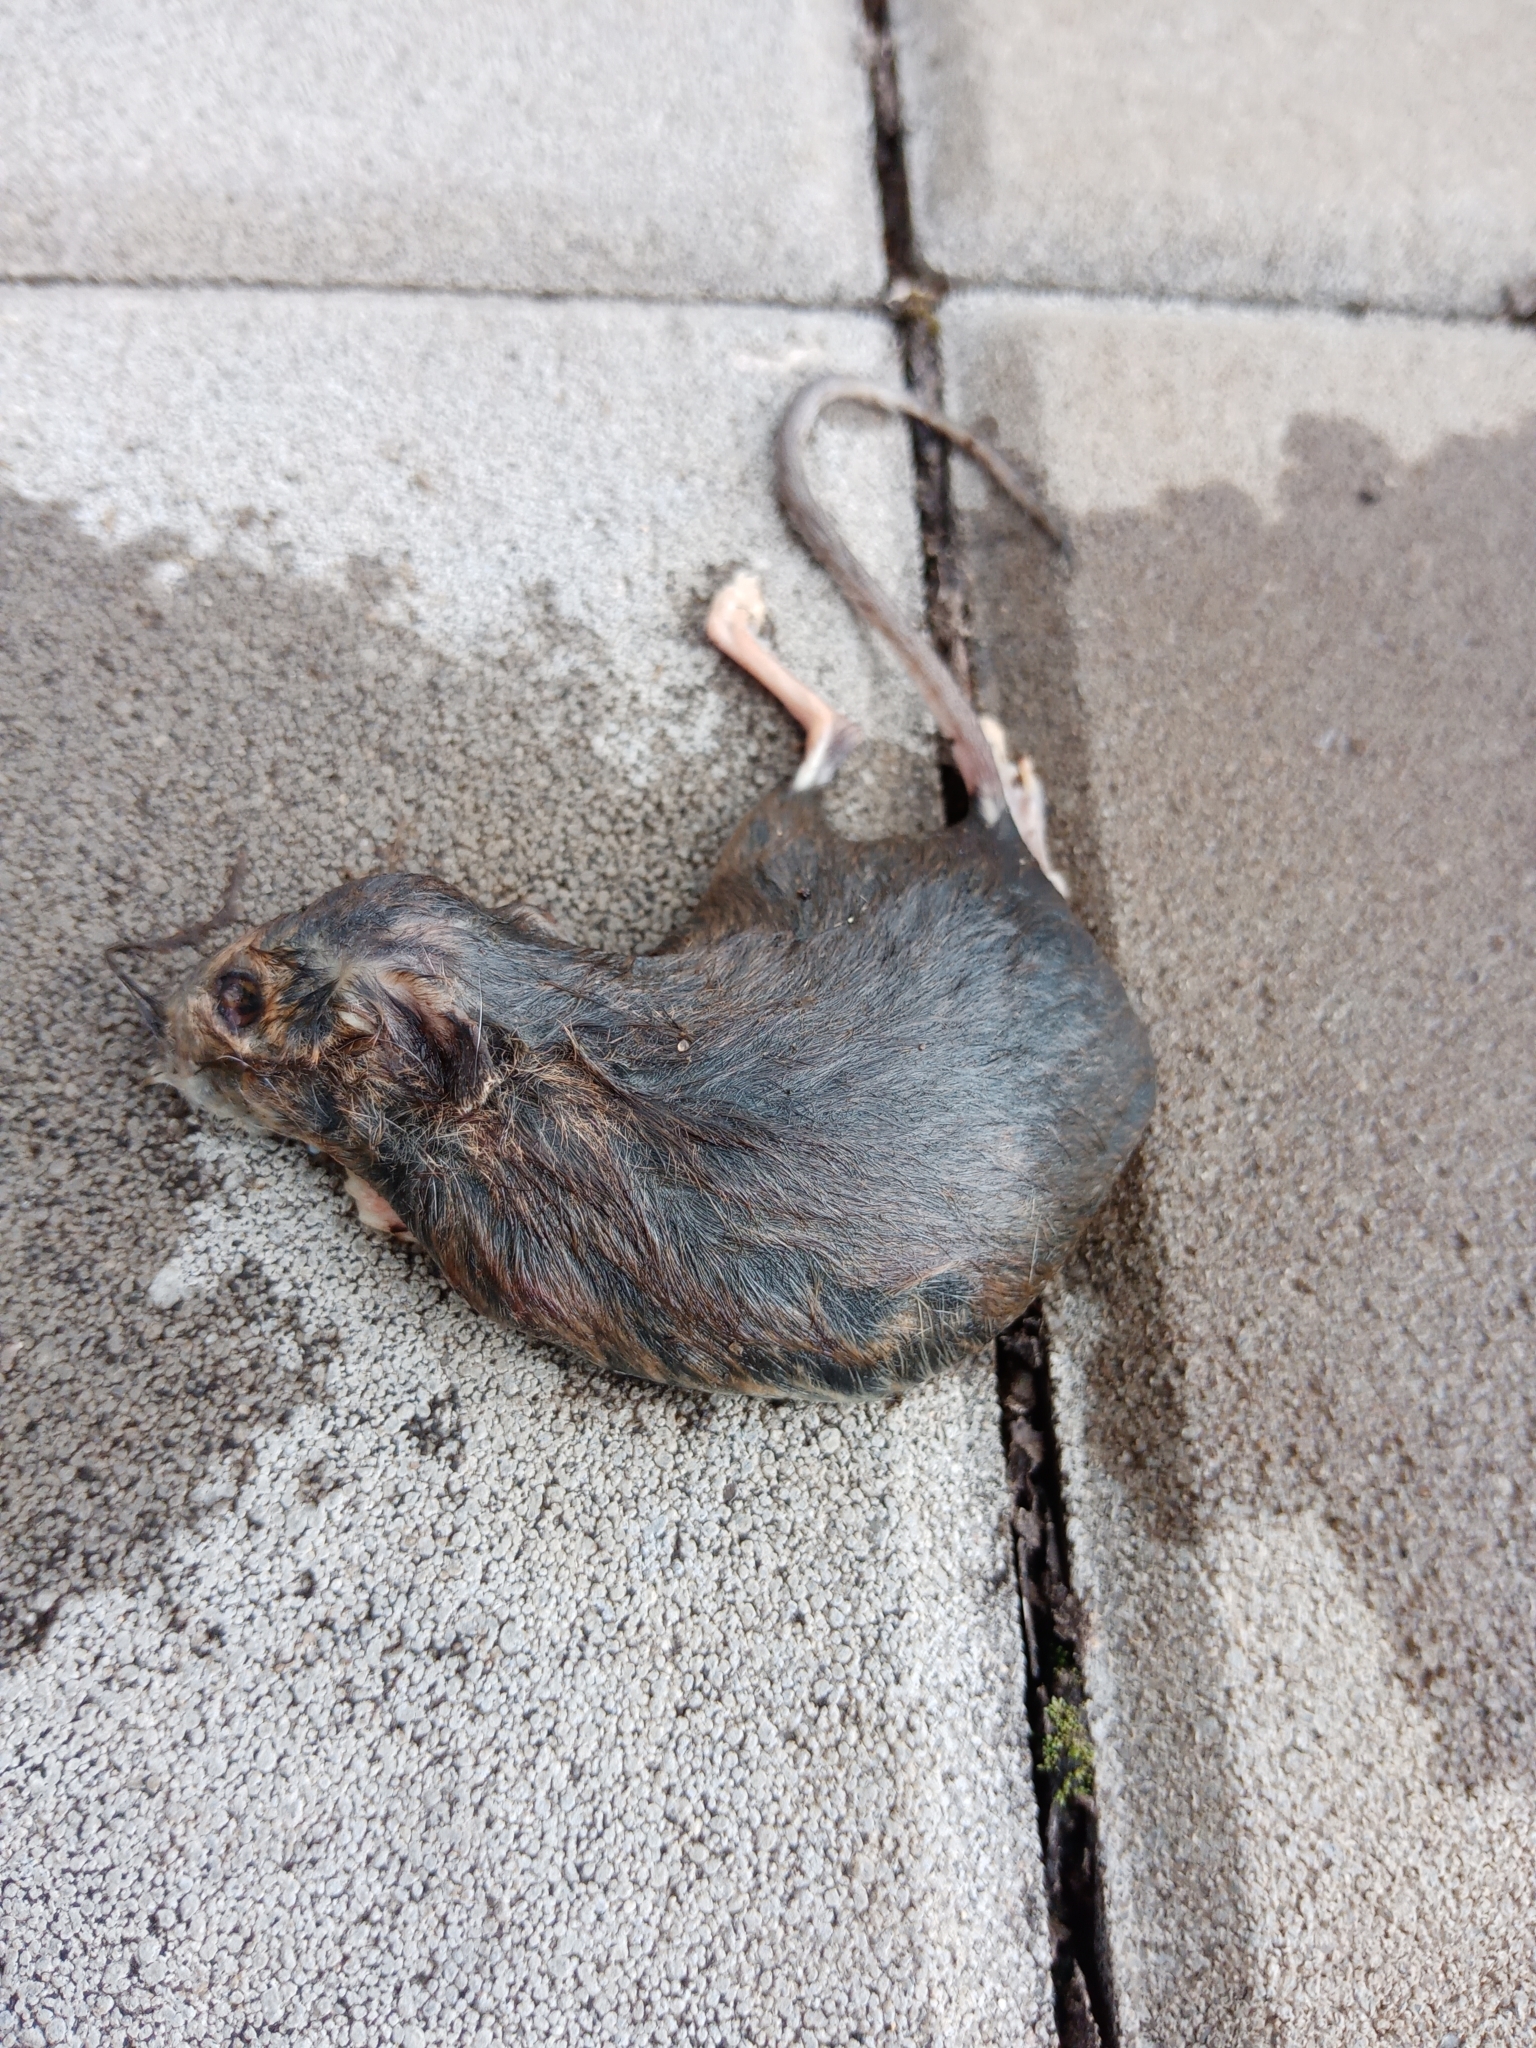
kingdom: Animalia
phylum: Chordata
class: Mammalia
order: Rodentia
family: Muridae
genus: Rattus
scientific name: Rattus norvegicus
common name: Brown rat
